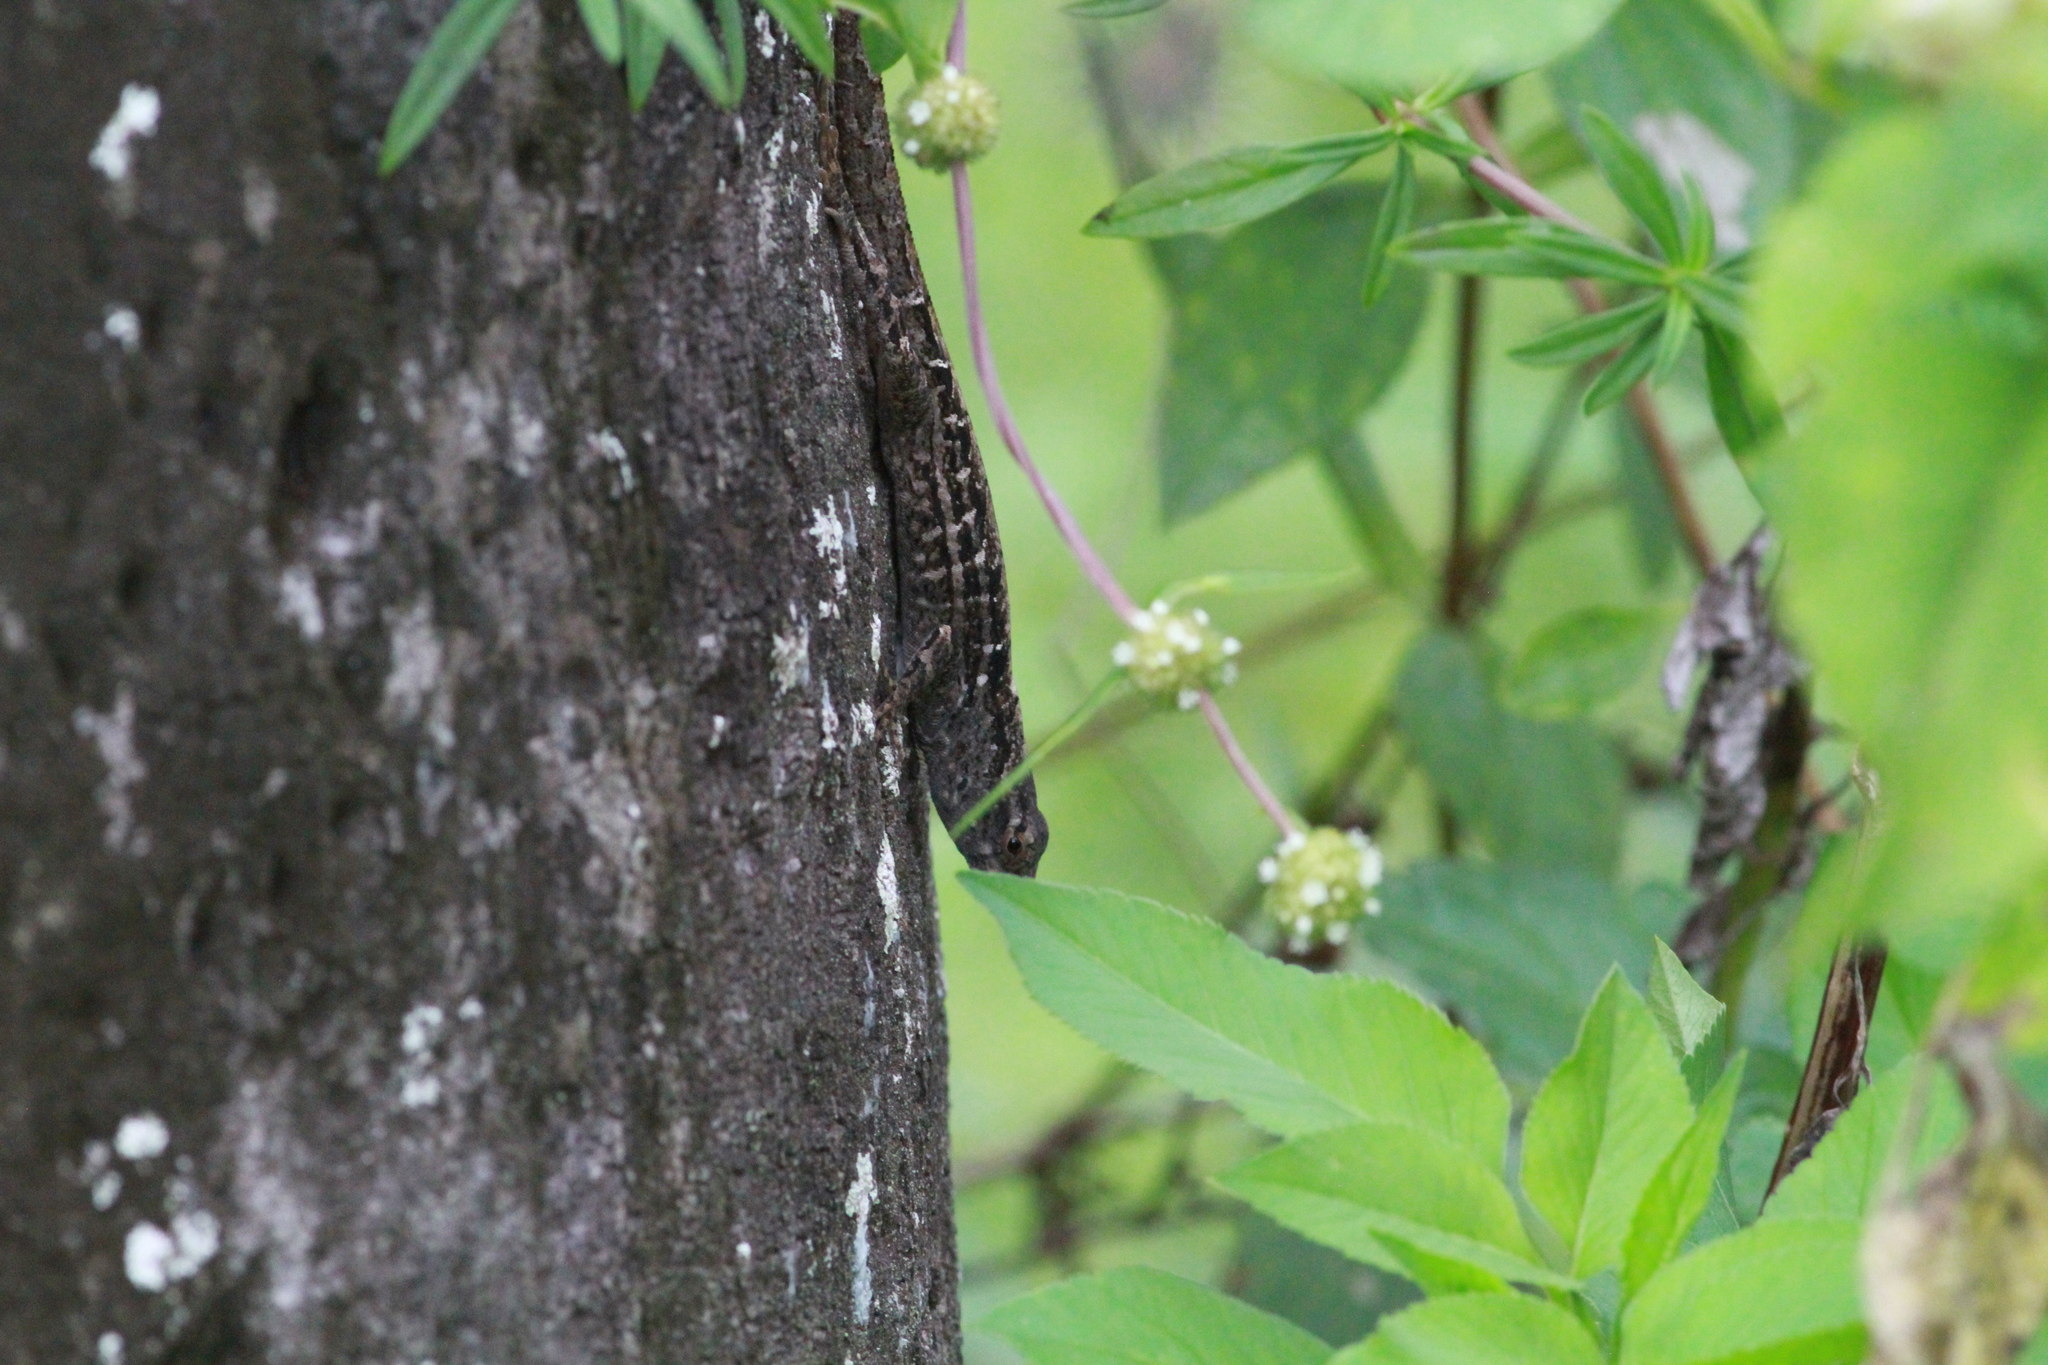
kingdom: Animalia
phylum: Chordata
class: Squamata
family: Dactyloidae
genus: Anolis
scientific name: Anolis sagrei
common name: Brown anole
